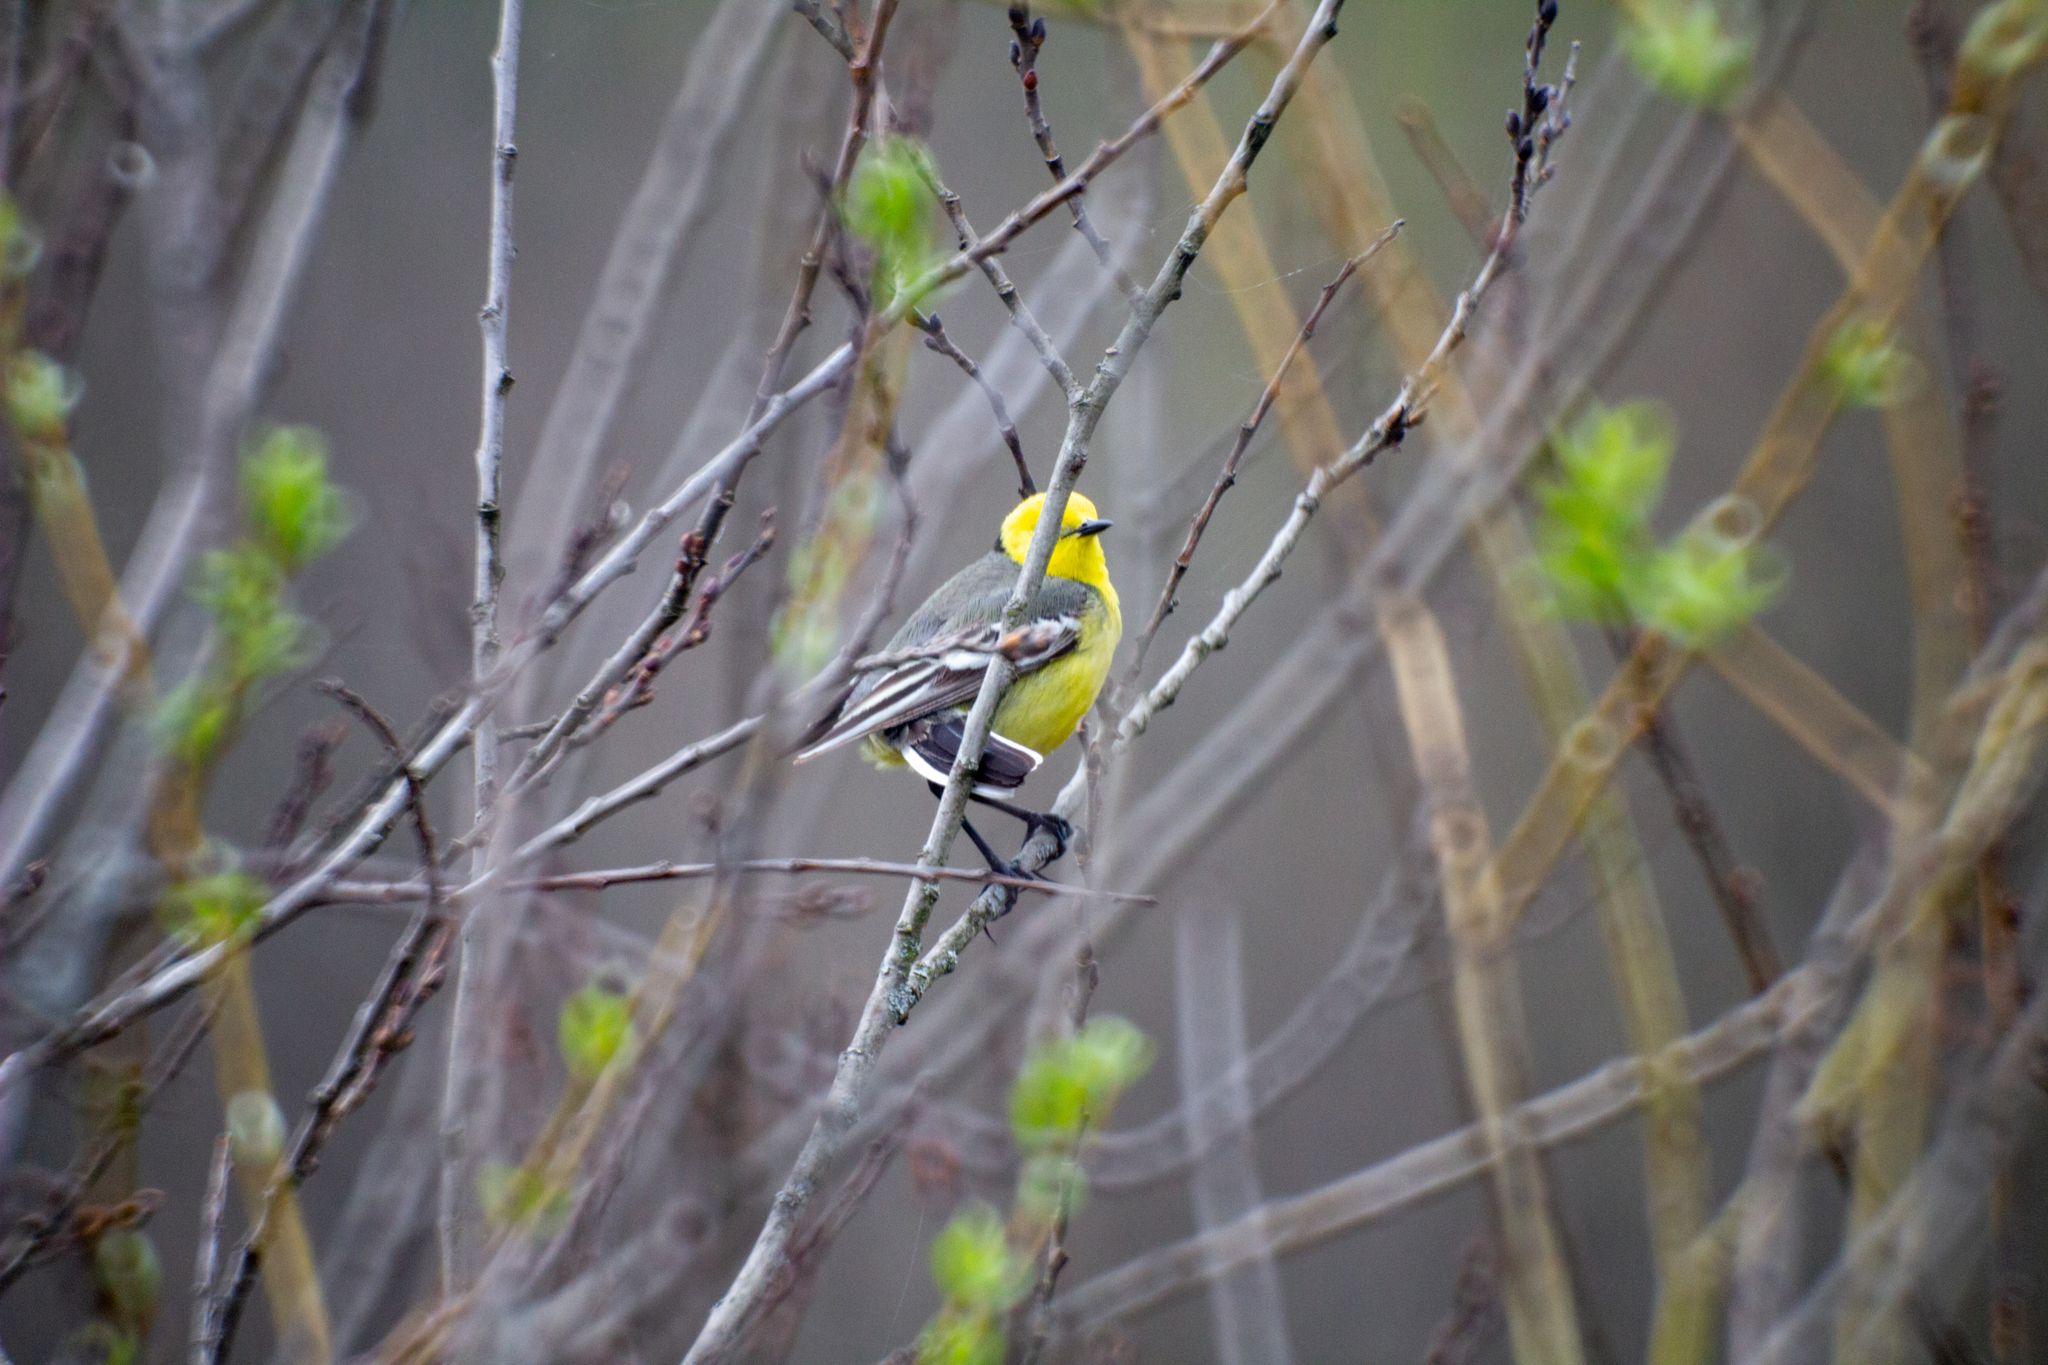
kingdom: Animalia
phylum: Chordata
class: Aves
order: Passeriformes
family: Motacillidae
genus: Motacilla
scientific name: Motacilla citreola
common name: Citrine wagtail
